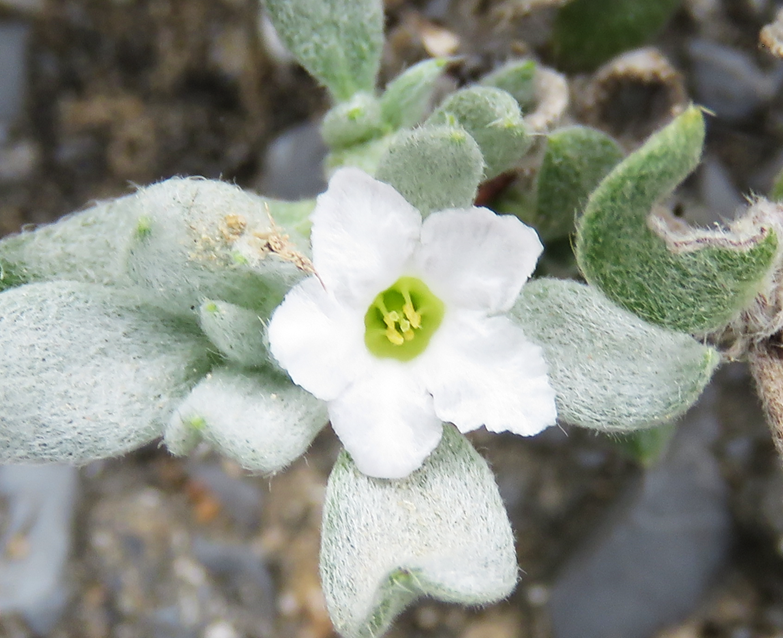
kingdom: Plantae
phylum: Tracheophyta
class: Magnoliopsida
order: Boraginales
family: Ehretiaceae
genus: Tiquilia
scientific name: Tiquilia canescens
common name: Hairy tiquilia
